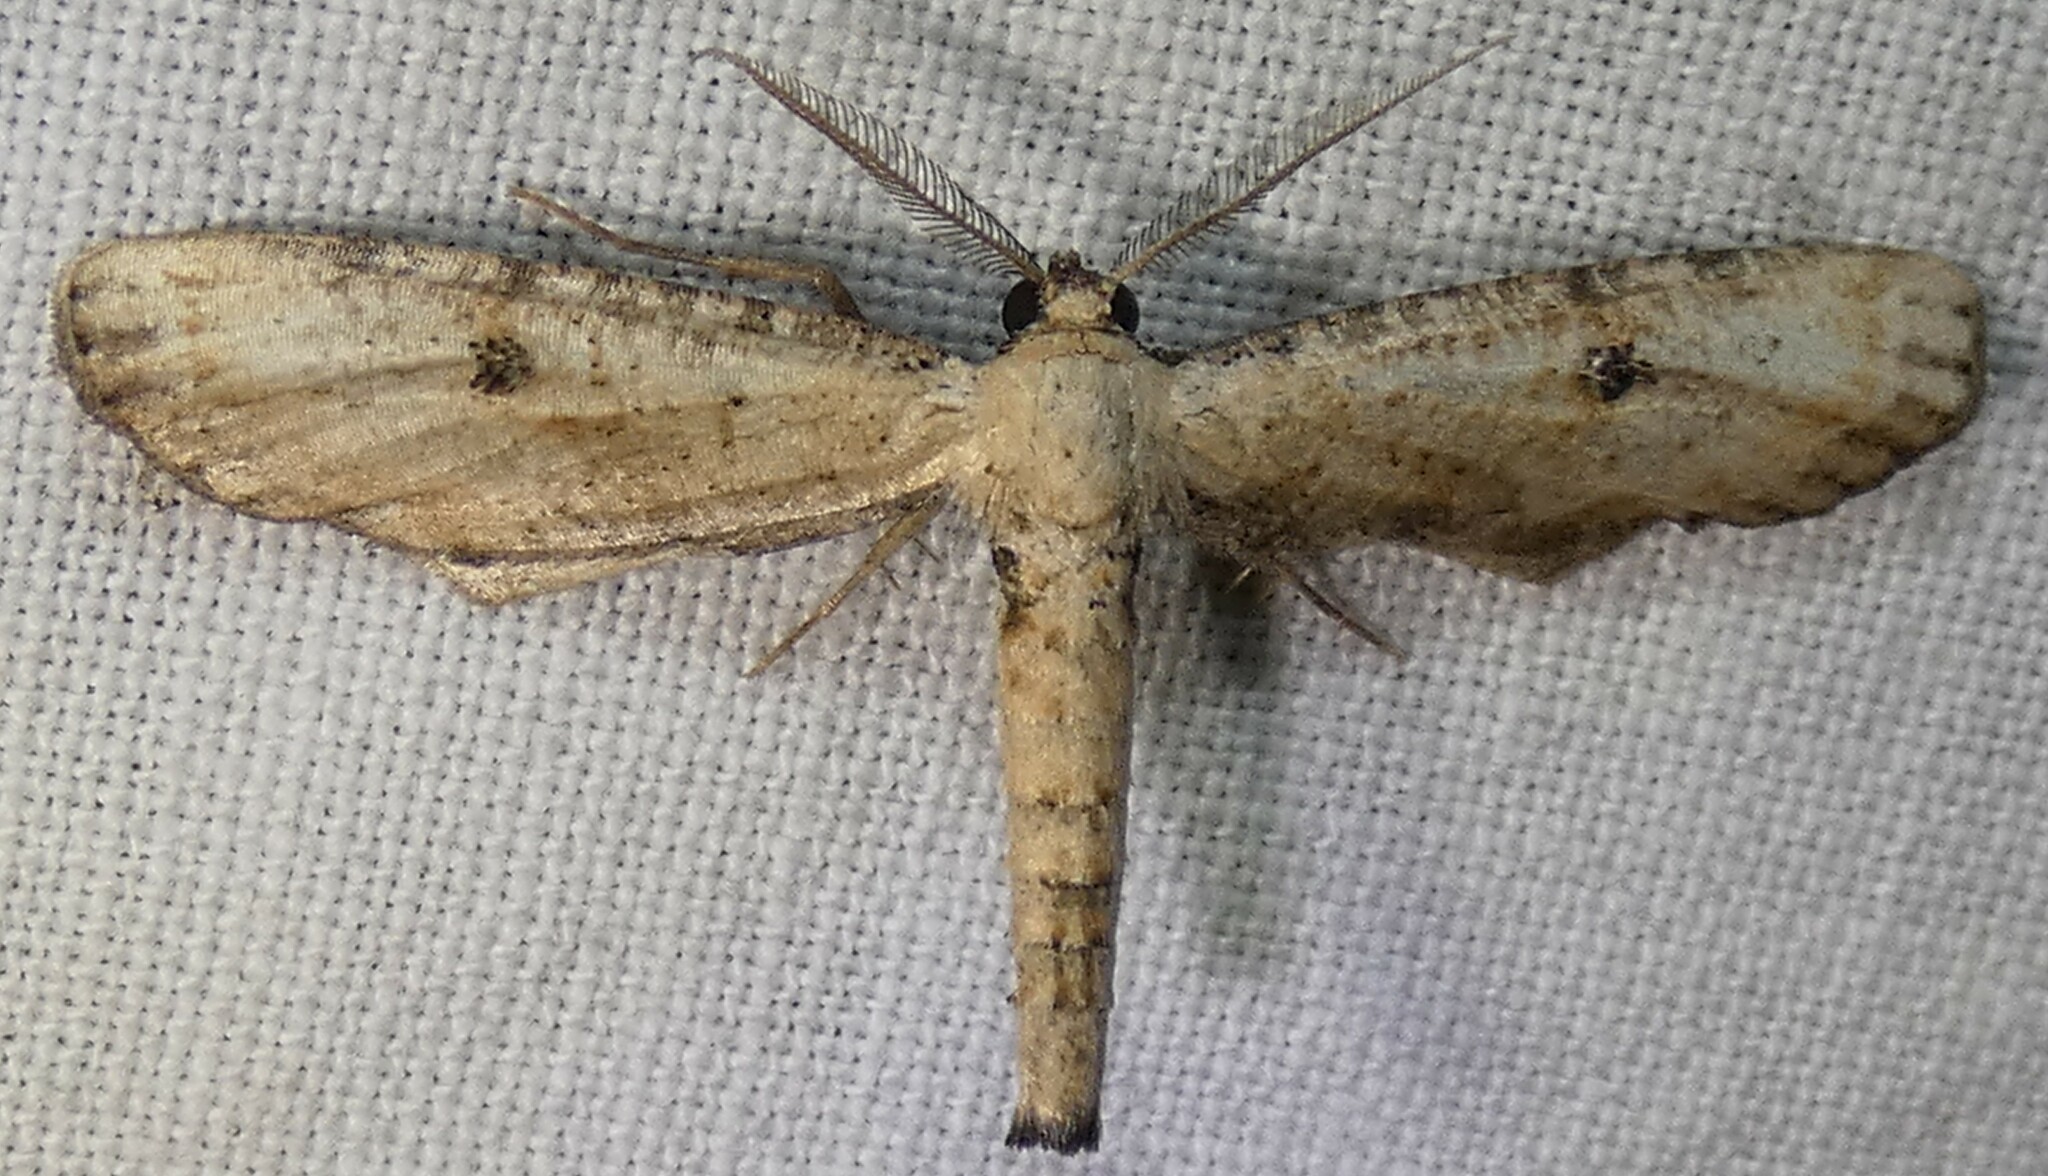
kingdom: Animalia
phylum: Arthropoda
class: Insecta
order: Lepidoptera
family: Geometridae
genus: Tornos
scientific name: Tornos scolopacinaria
